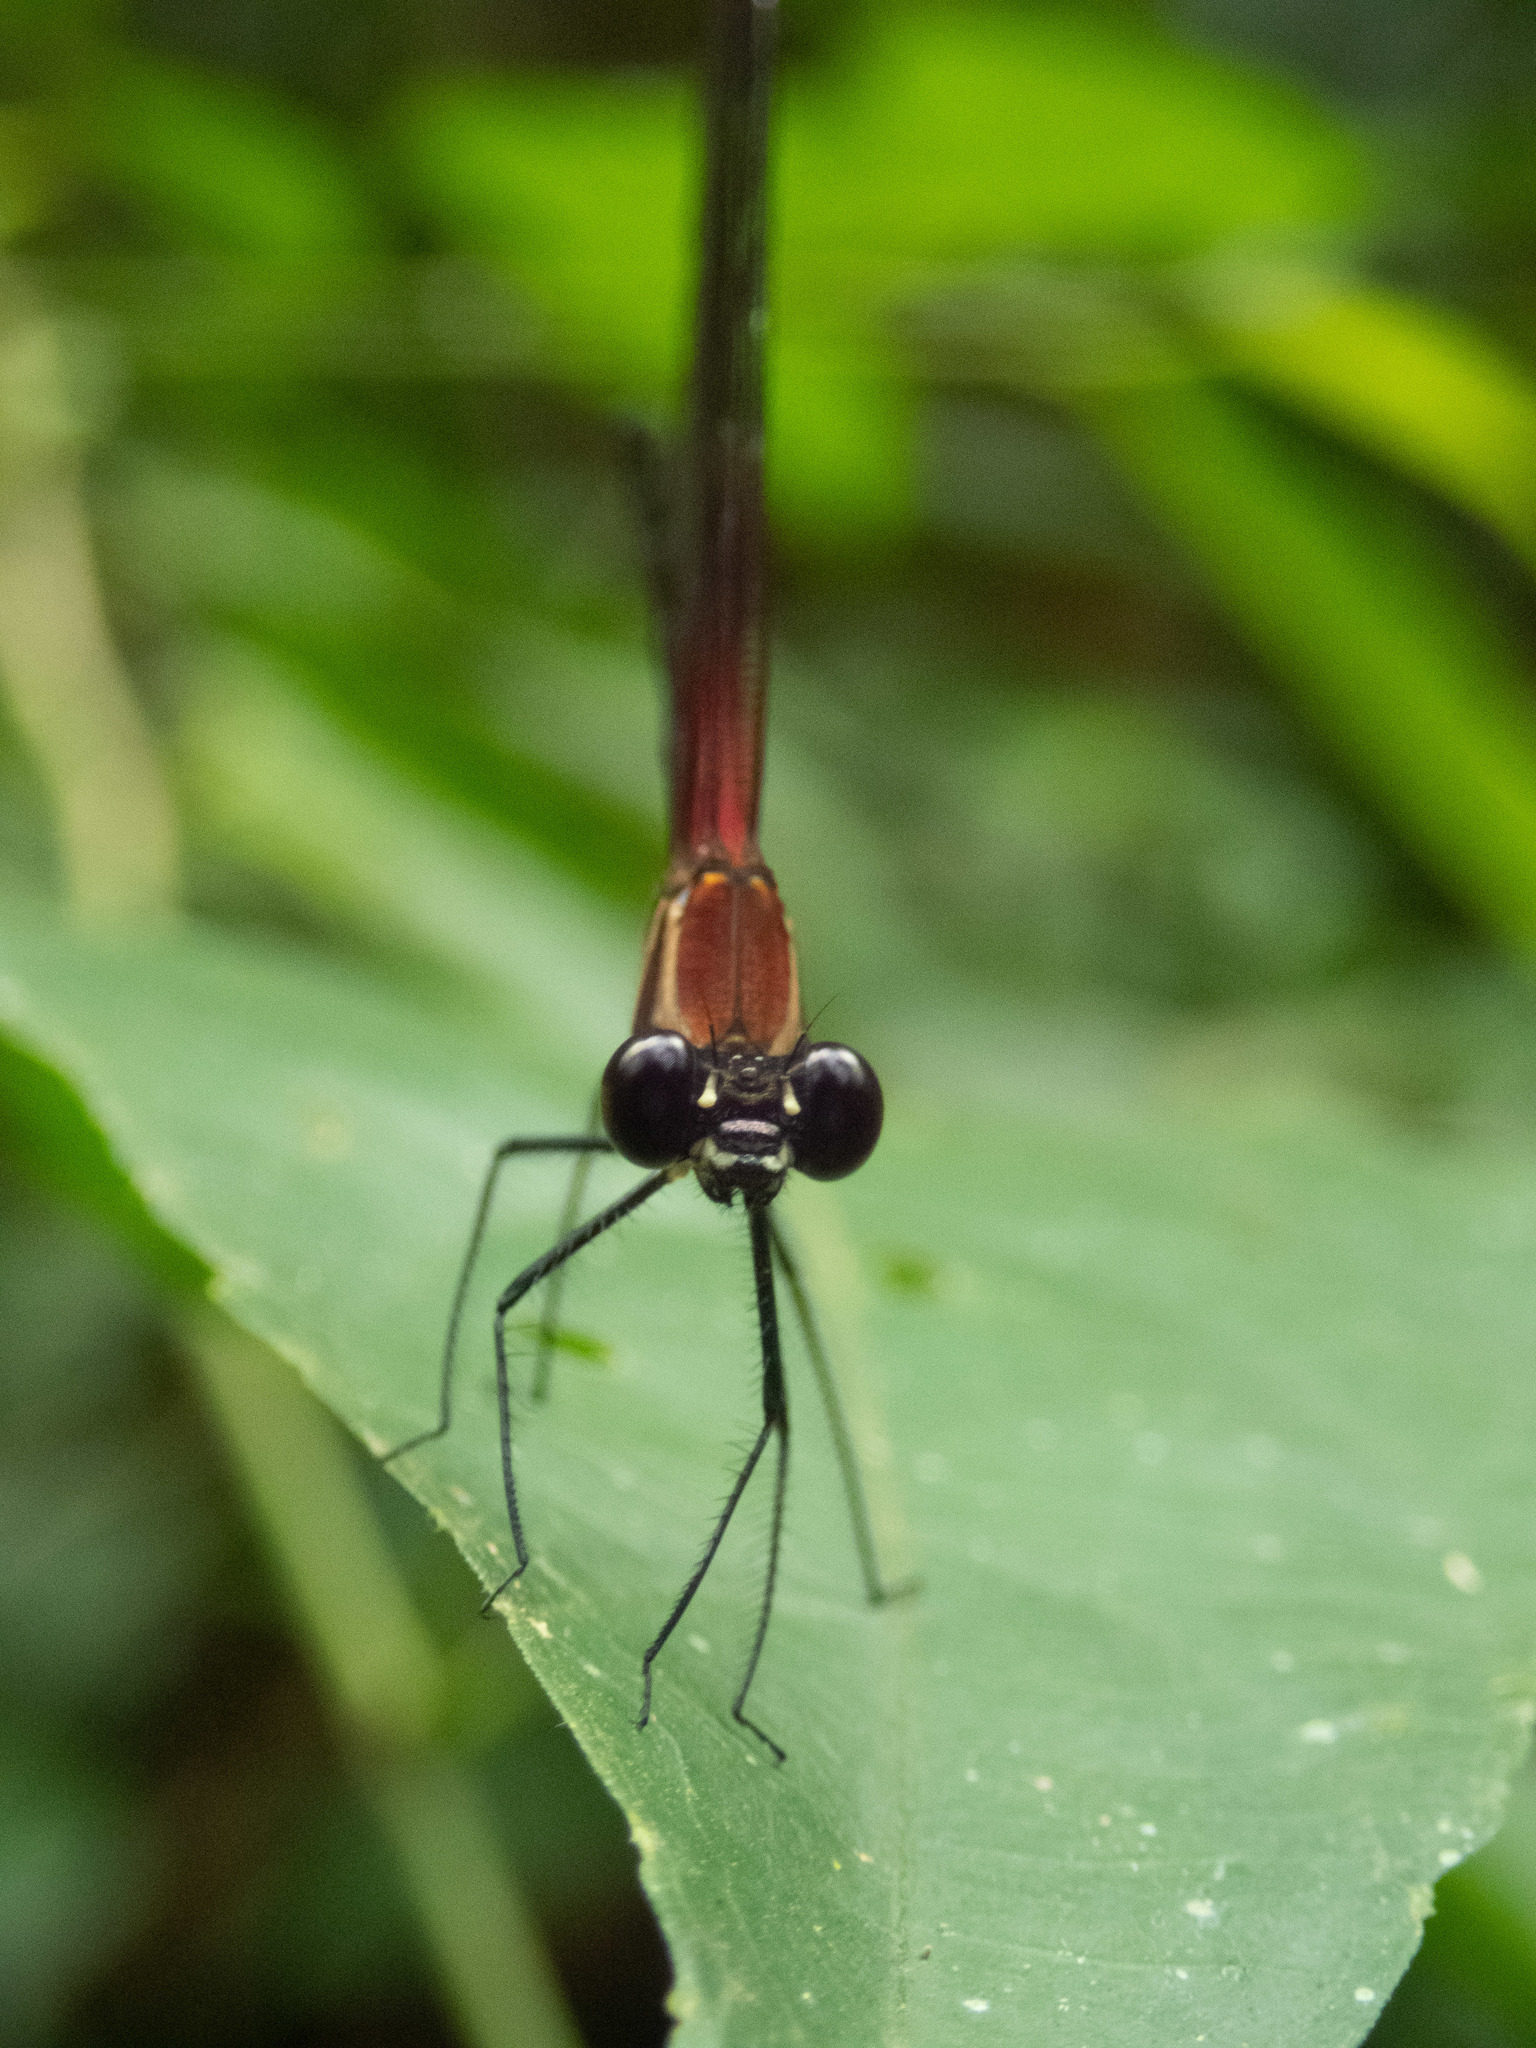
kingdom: Animalia
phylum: Arthropoda
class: Insecta
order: Odonata
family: Calopterygidae
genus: Hetaerina
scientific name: Hetaerina fuscoguttata
